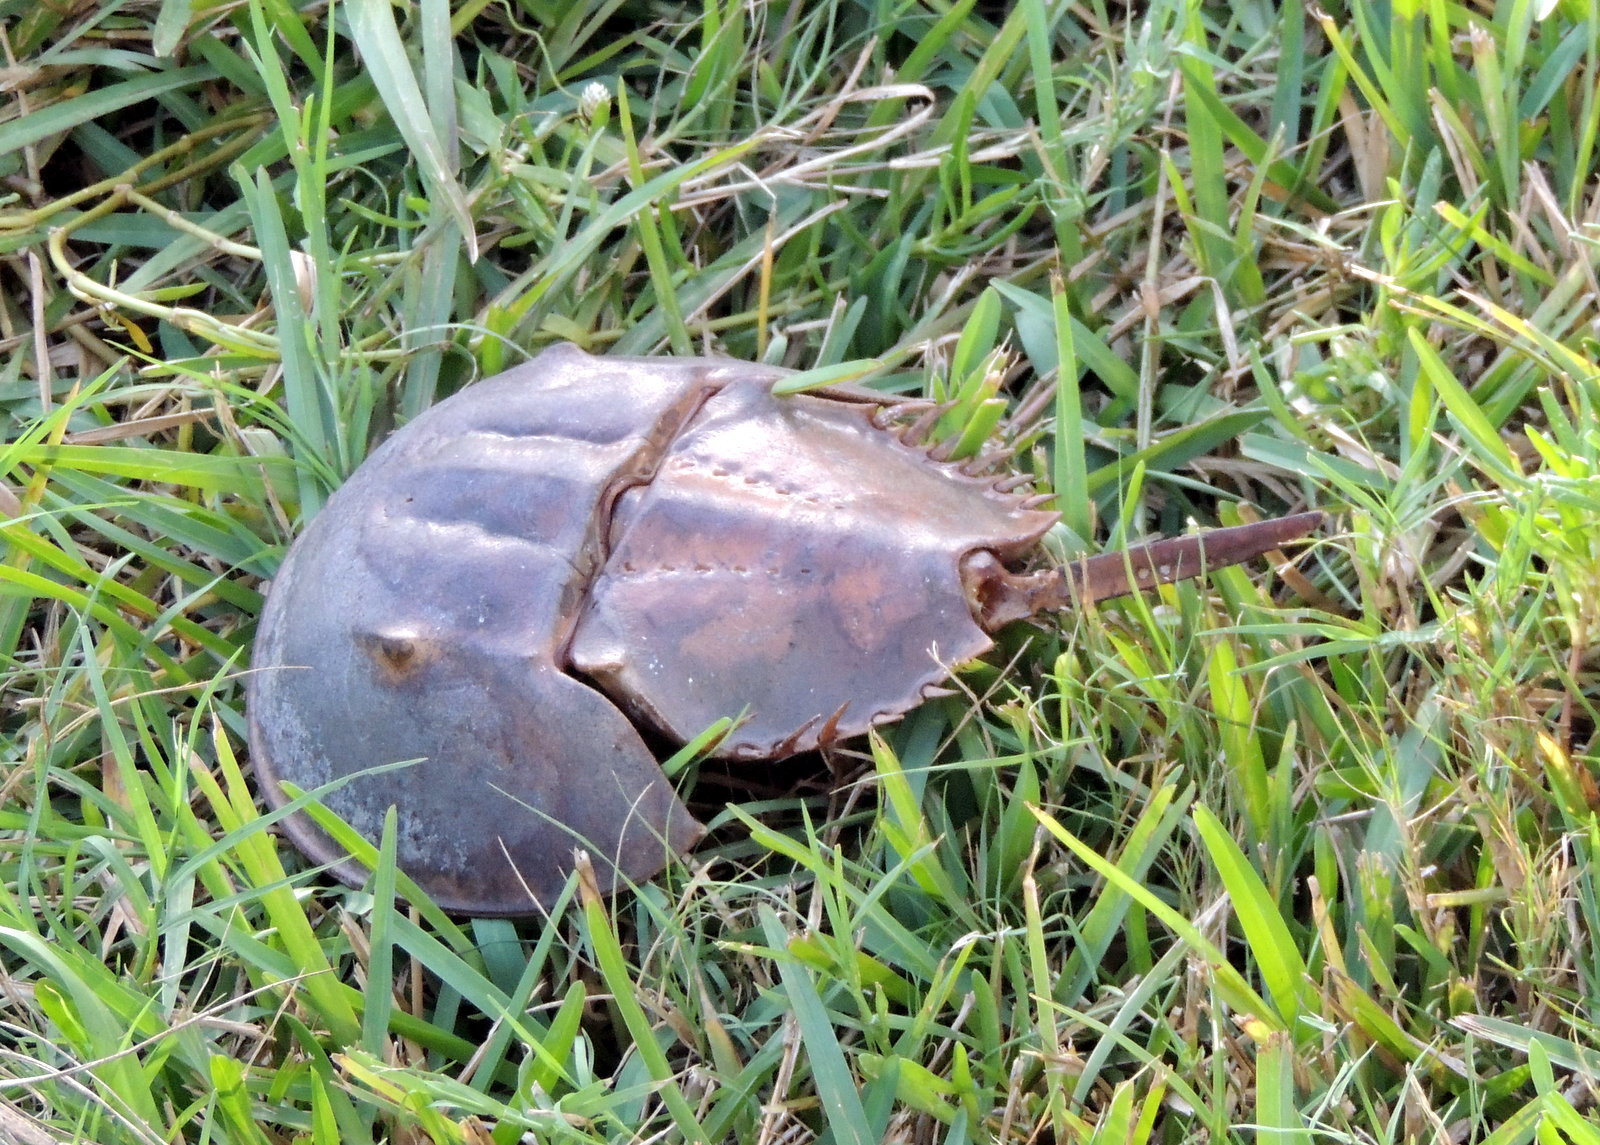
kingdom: Animalia
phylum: Arthropoda
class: Merostomata
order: Xiphosurida
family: Limulidae
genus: Limulus
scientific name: Limulus polyphemus
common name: Horseshoe crab
